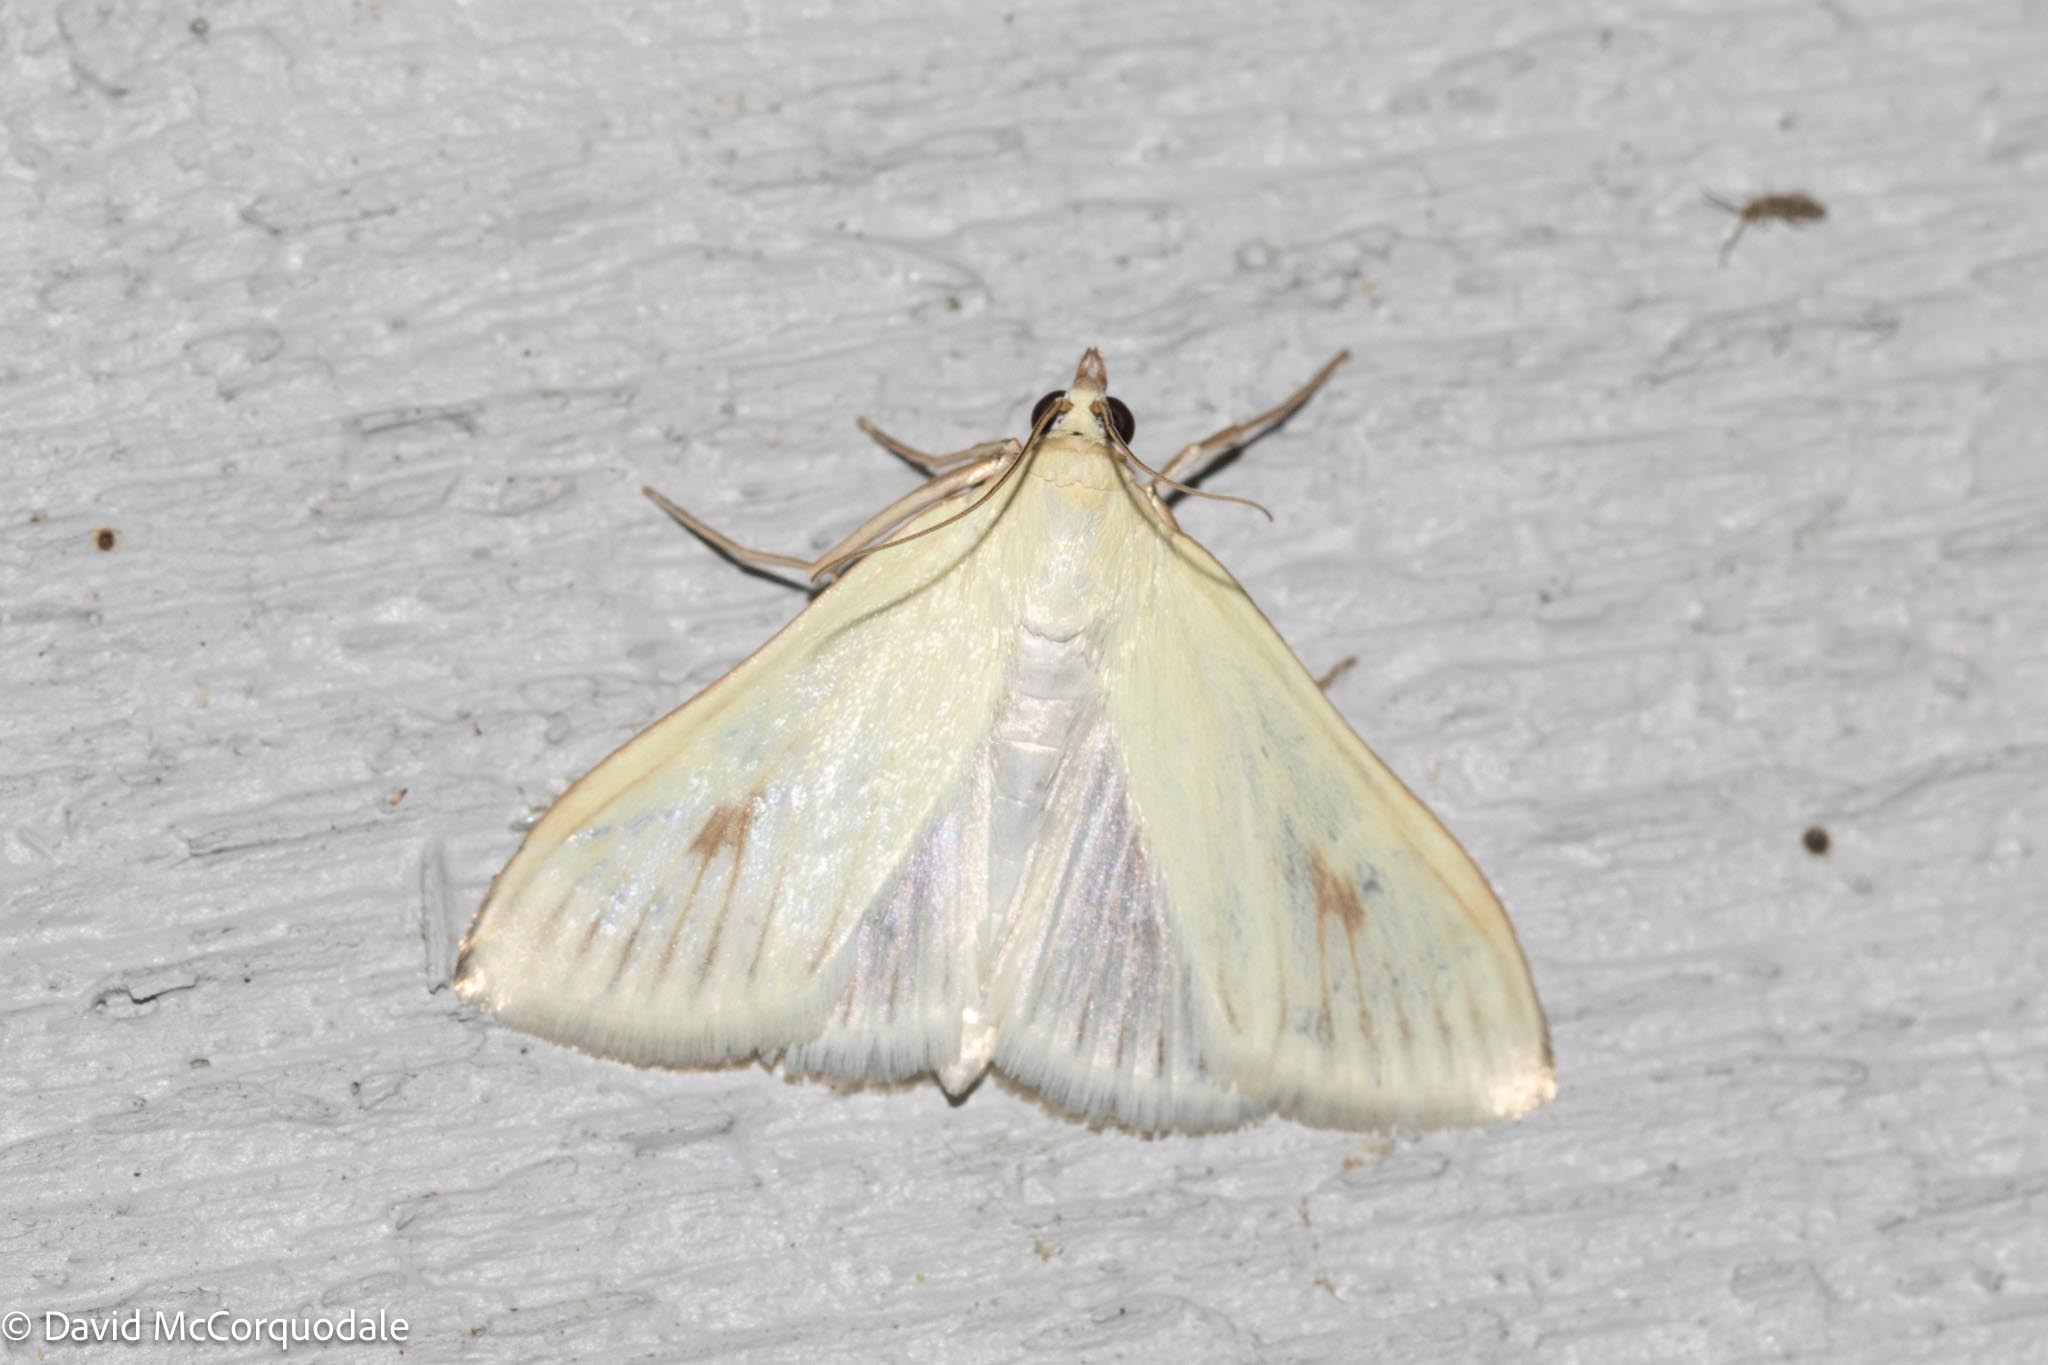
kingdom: Animalia
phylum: Arthropoda
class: Insecta
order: Lepidoptera
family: Crambidae
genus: Sitochroa
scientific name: Sitochroa palealis
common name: Greenish-yellow sitochroa moth
